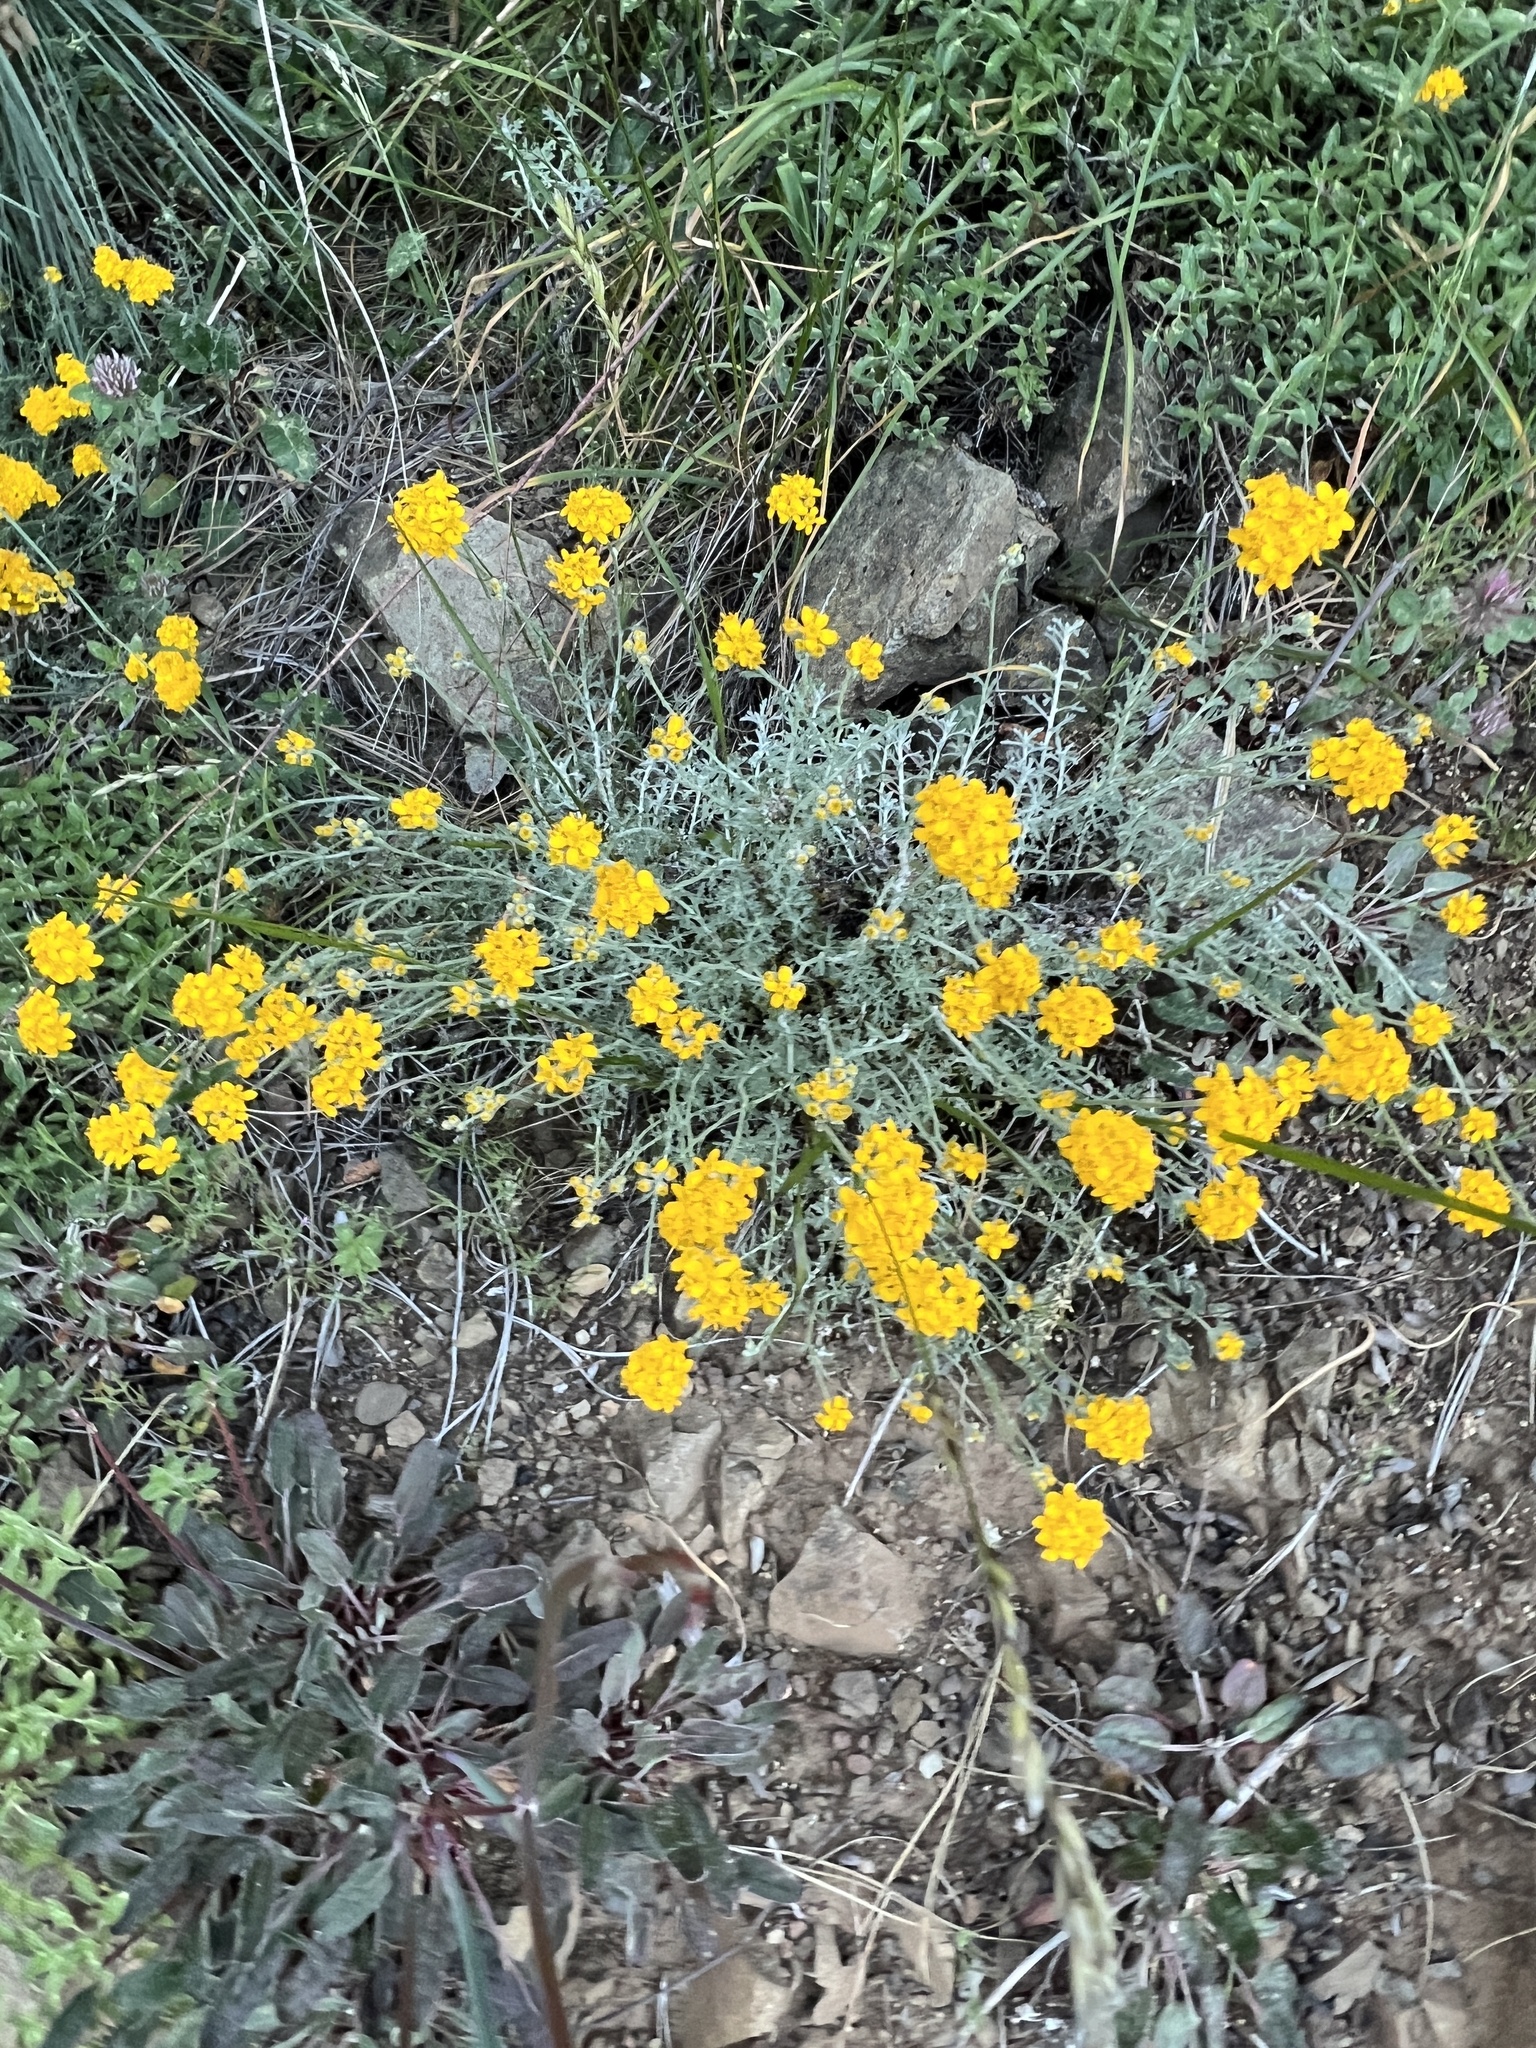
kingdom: Plantae
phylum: Tracheophyta
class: Magnoliopsida
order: Asterales
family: Asteraceae
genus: Eriophyllum
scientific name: Eriophyllum confertiflorum
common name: Golden-yarrow
